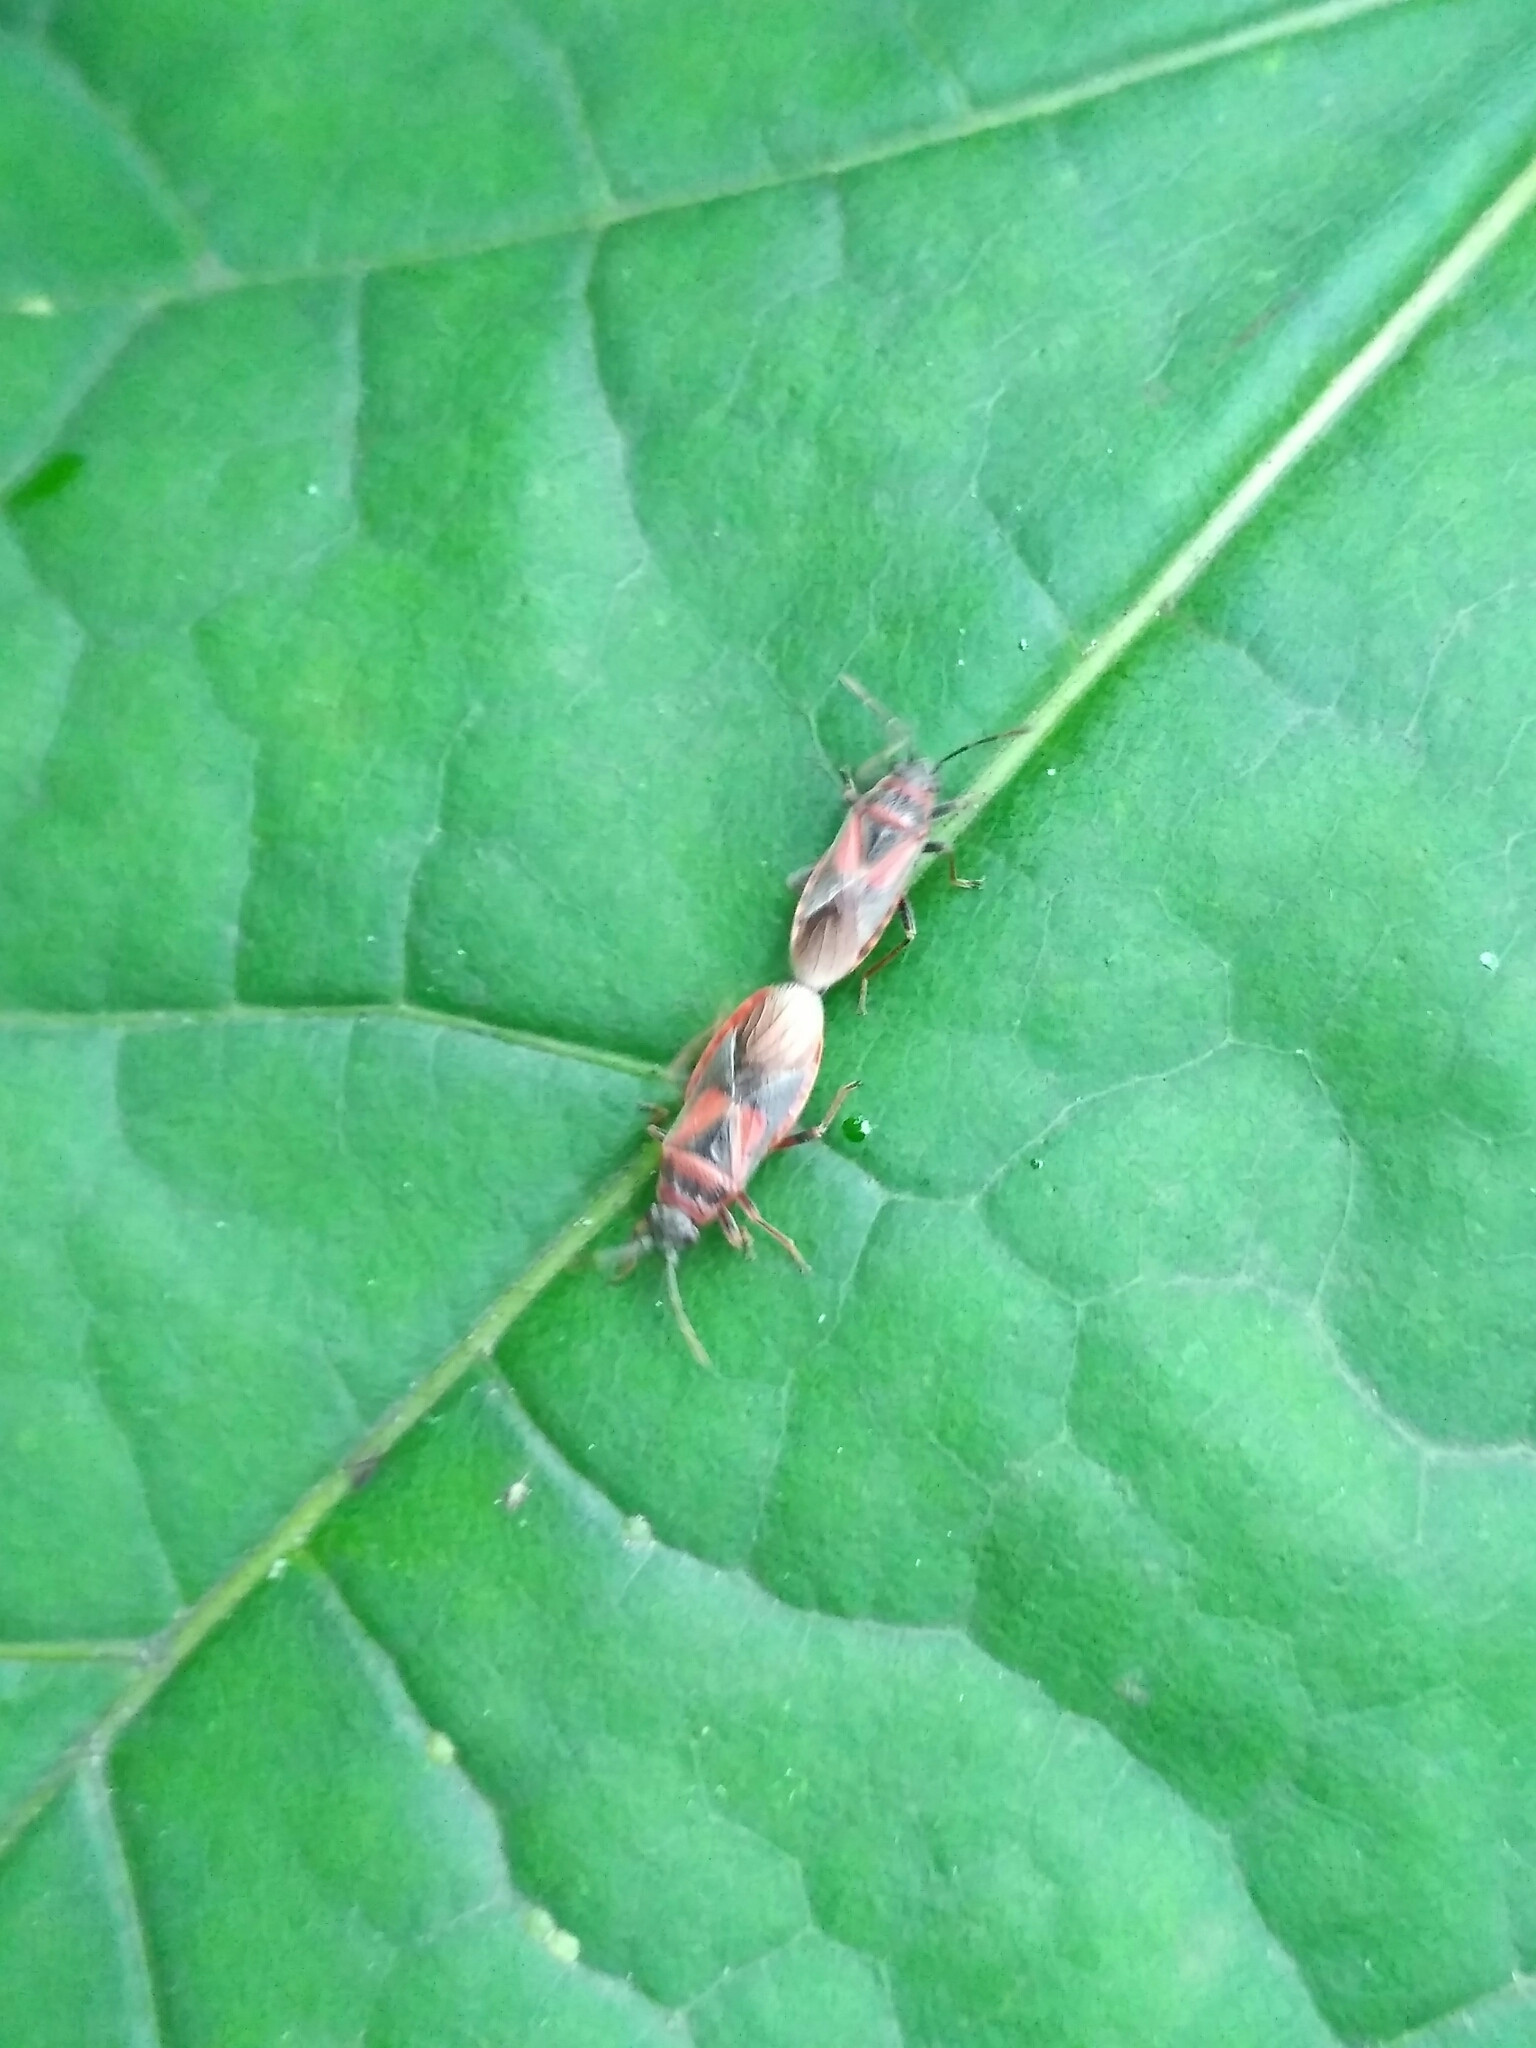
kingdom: Animalia
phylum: Arthropoda
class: Insecta
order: Hemiptera
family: Lygaeidae
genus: Arocatus
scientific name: Arocatus melanocephalus
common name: Lygaeid bug
